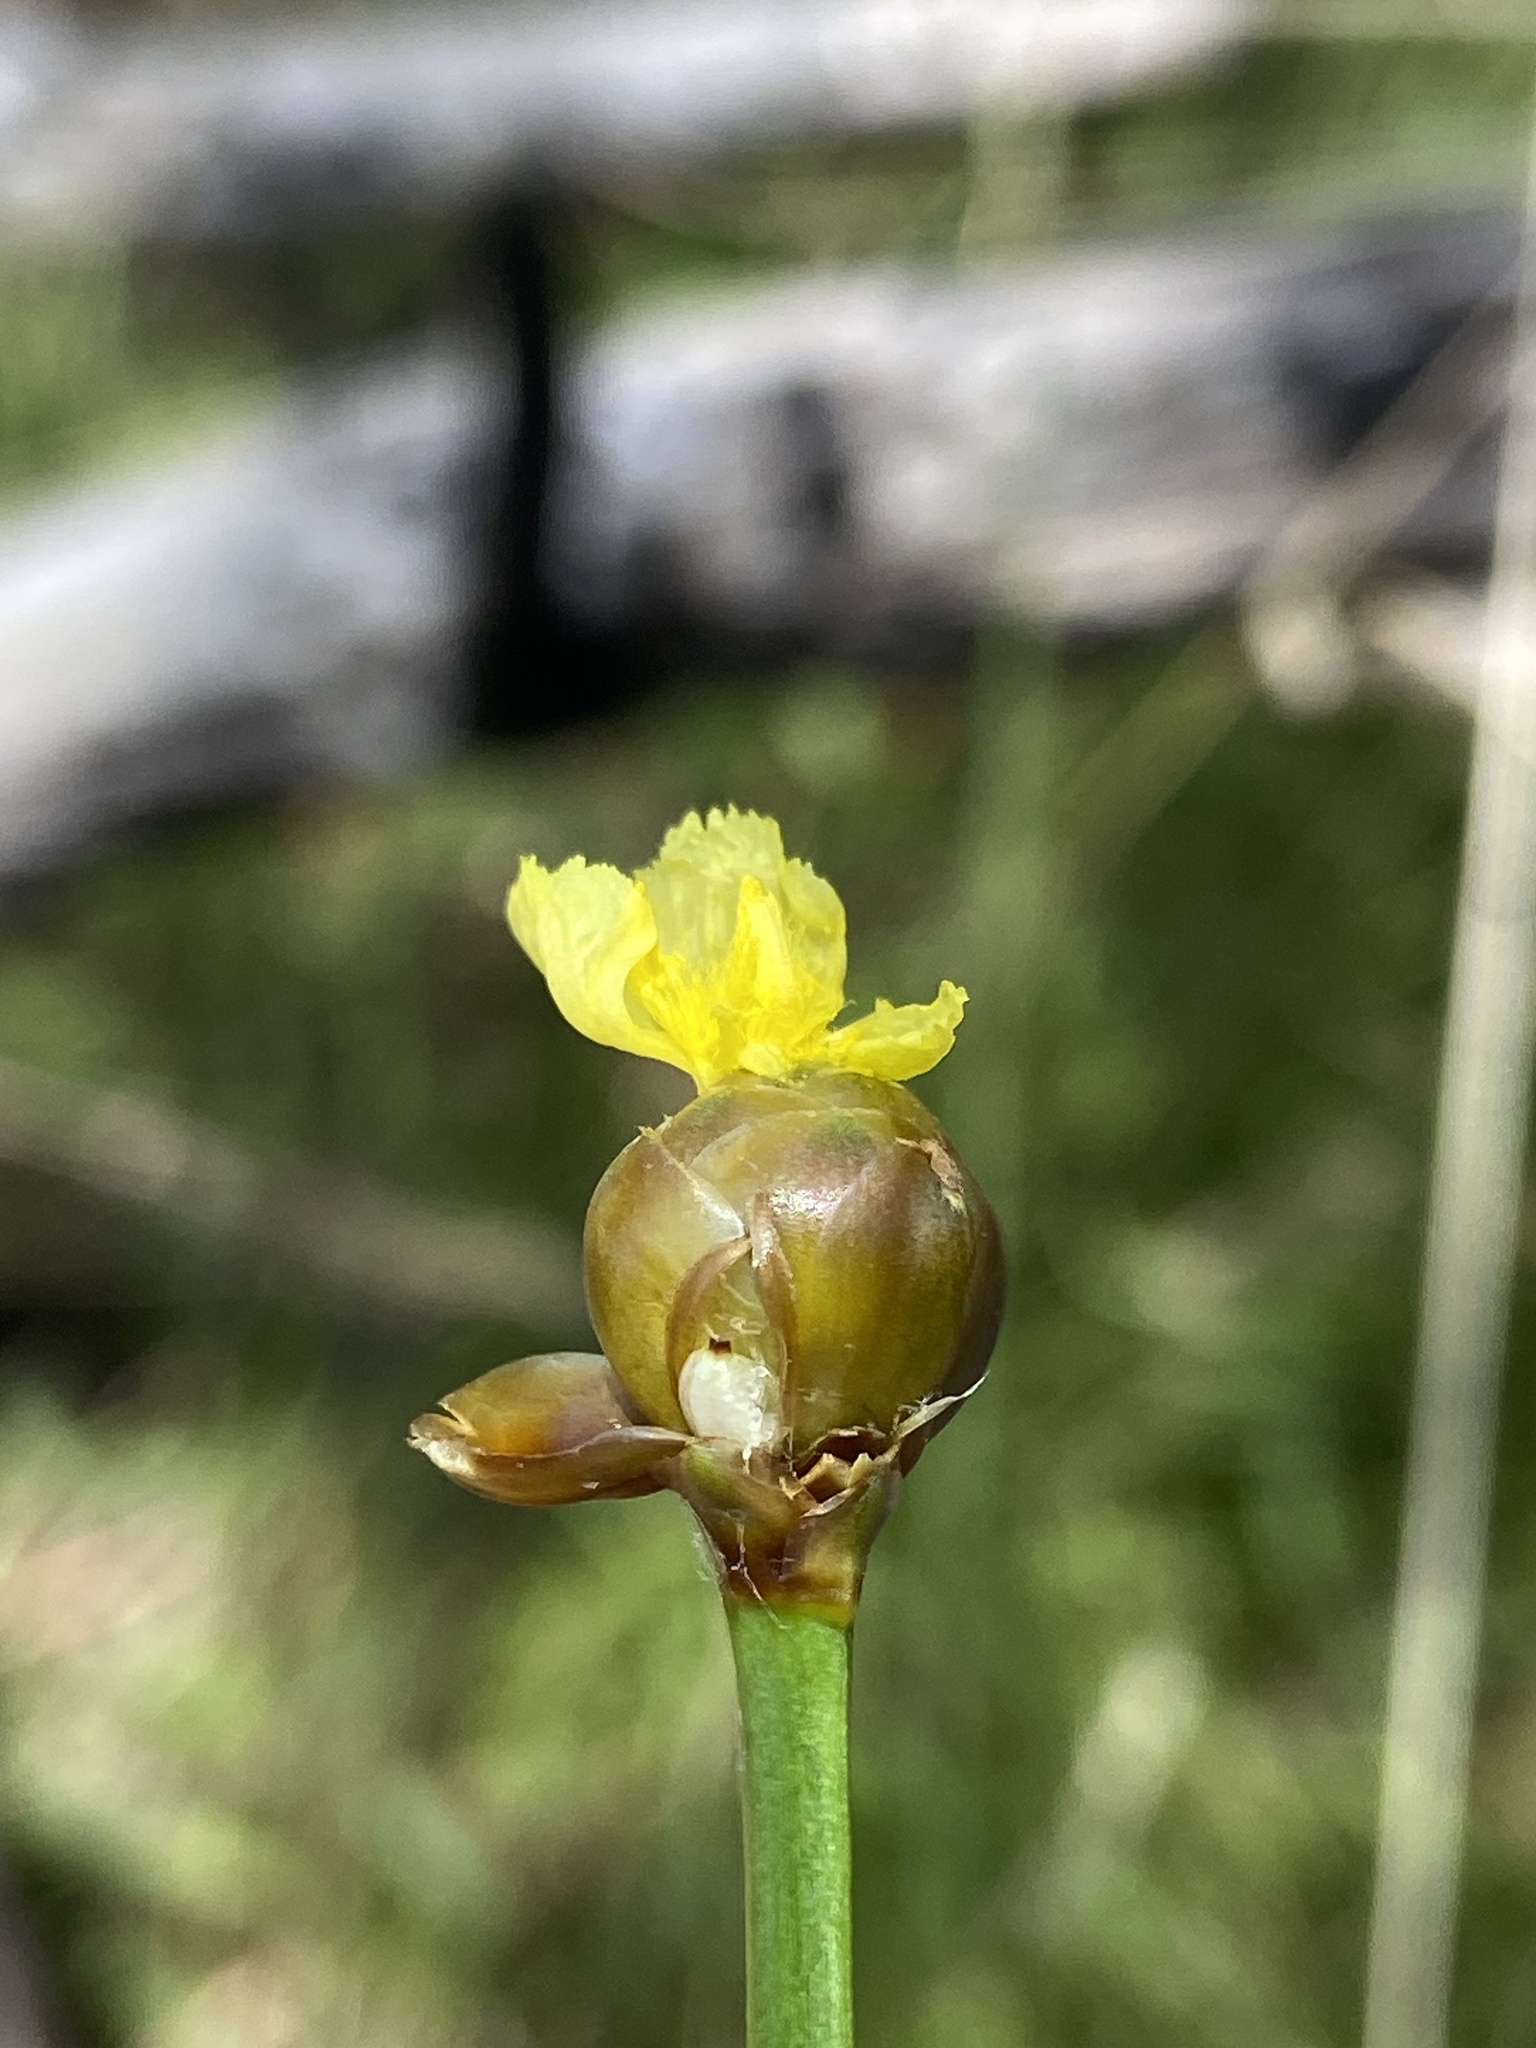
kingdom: Plantae
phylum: Tracheophyta
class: Liliopsida
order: Poales
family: Xyridaceae
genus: Xyris
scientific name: Xyris torta
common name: Common yelloweyed grass
